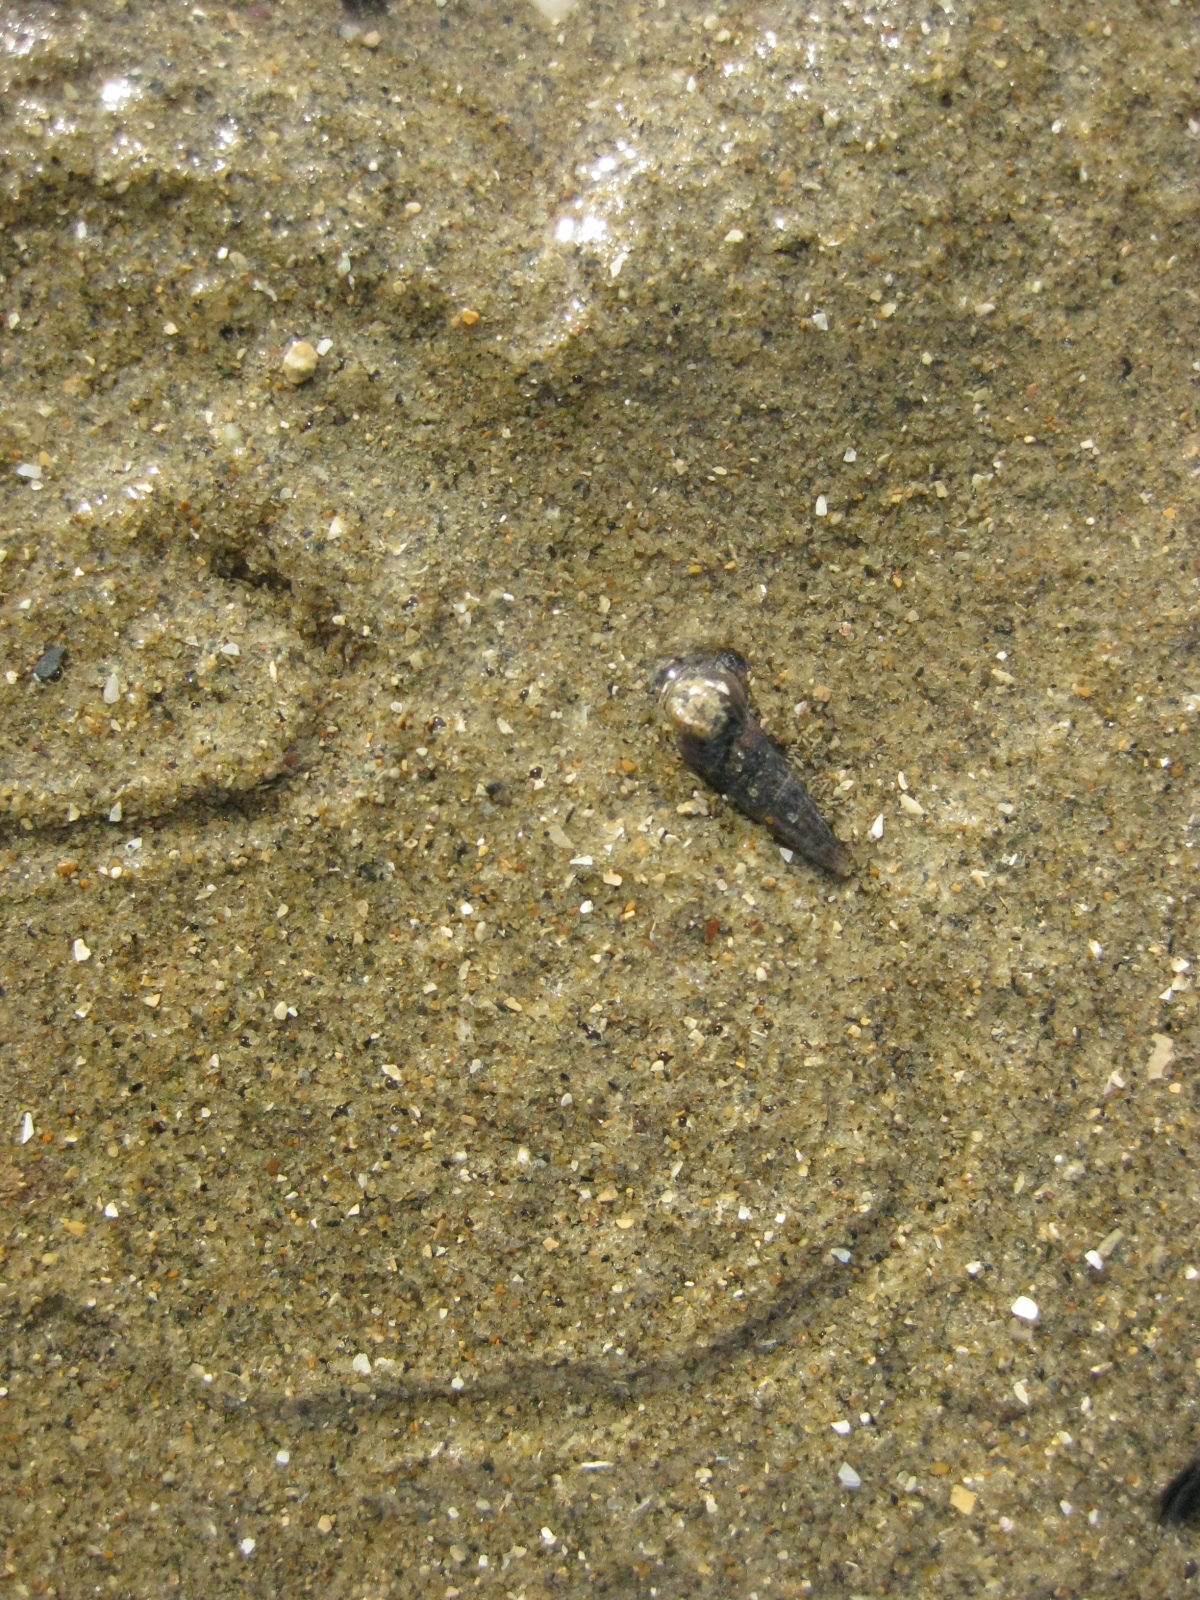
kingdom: Animalia
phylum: Mollusca
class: Gastropoda
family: Batillariidae
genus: Zeacumantus
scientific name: Zeacumantus subcarinatus
